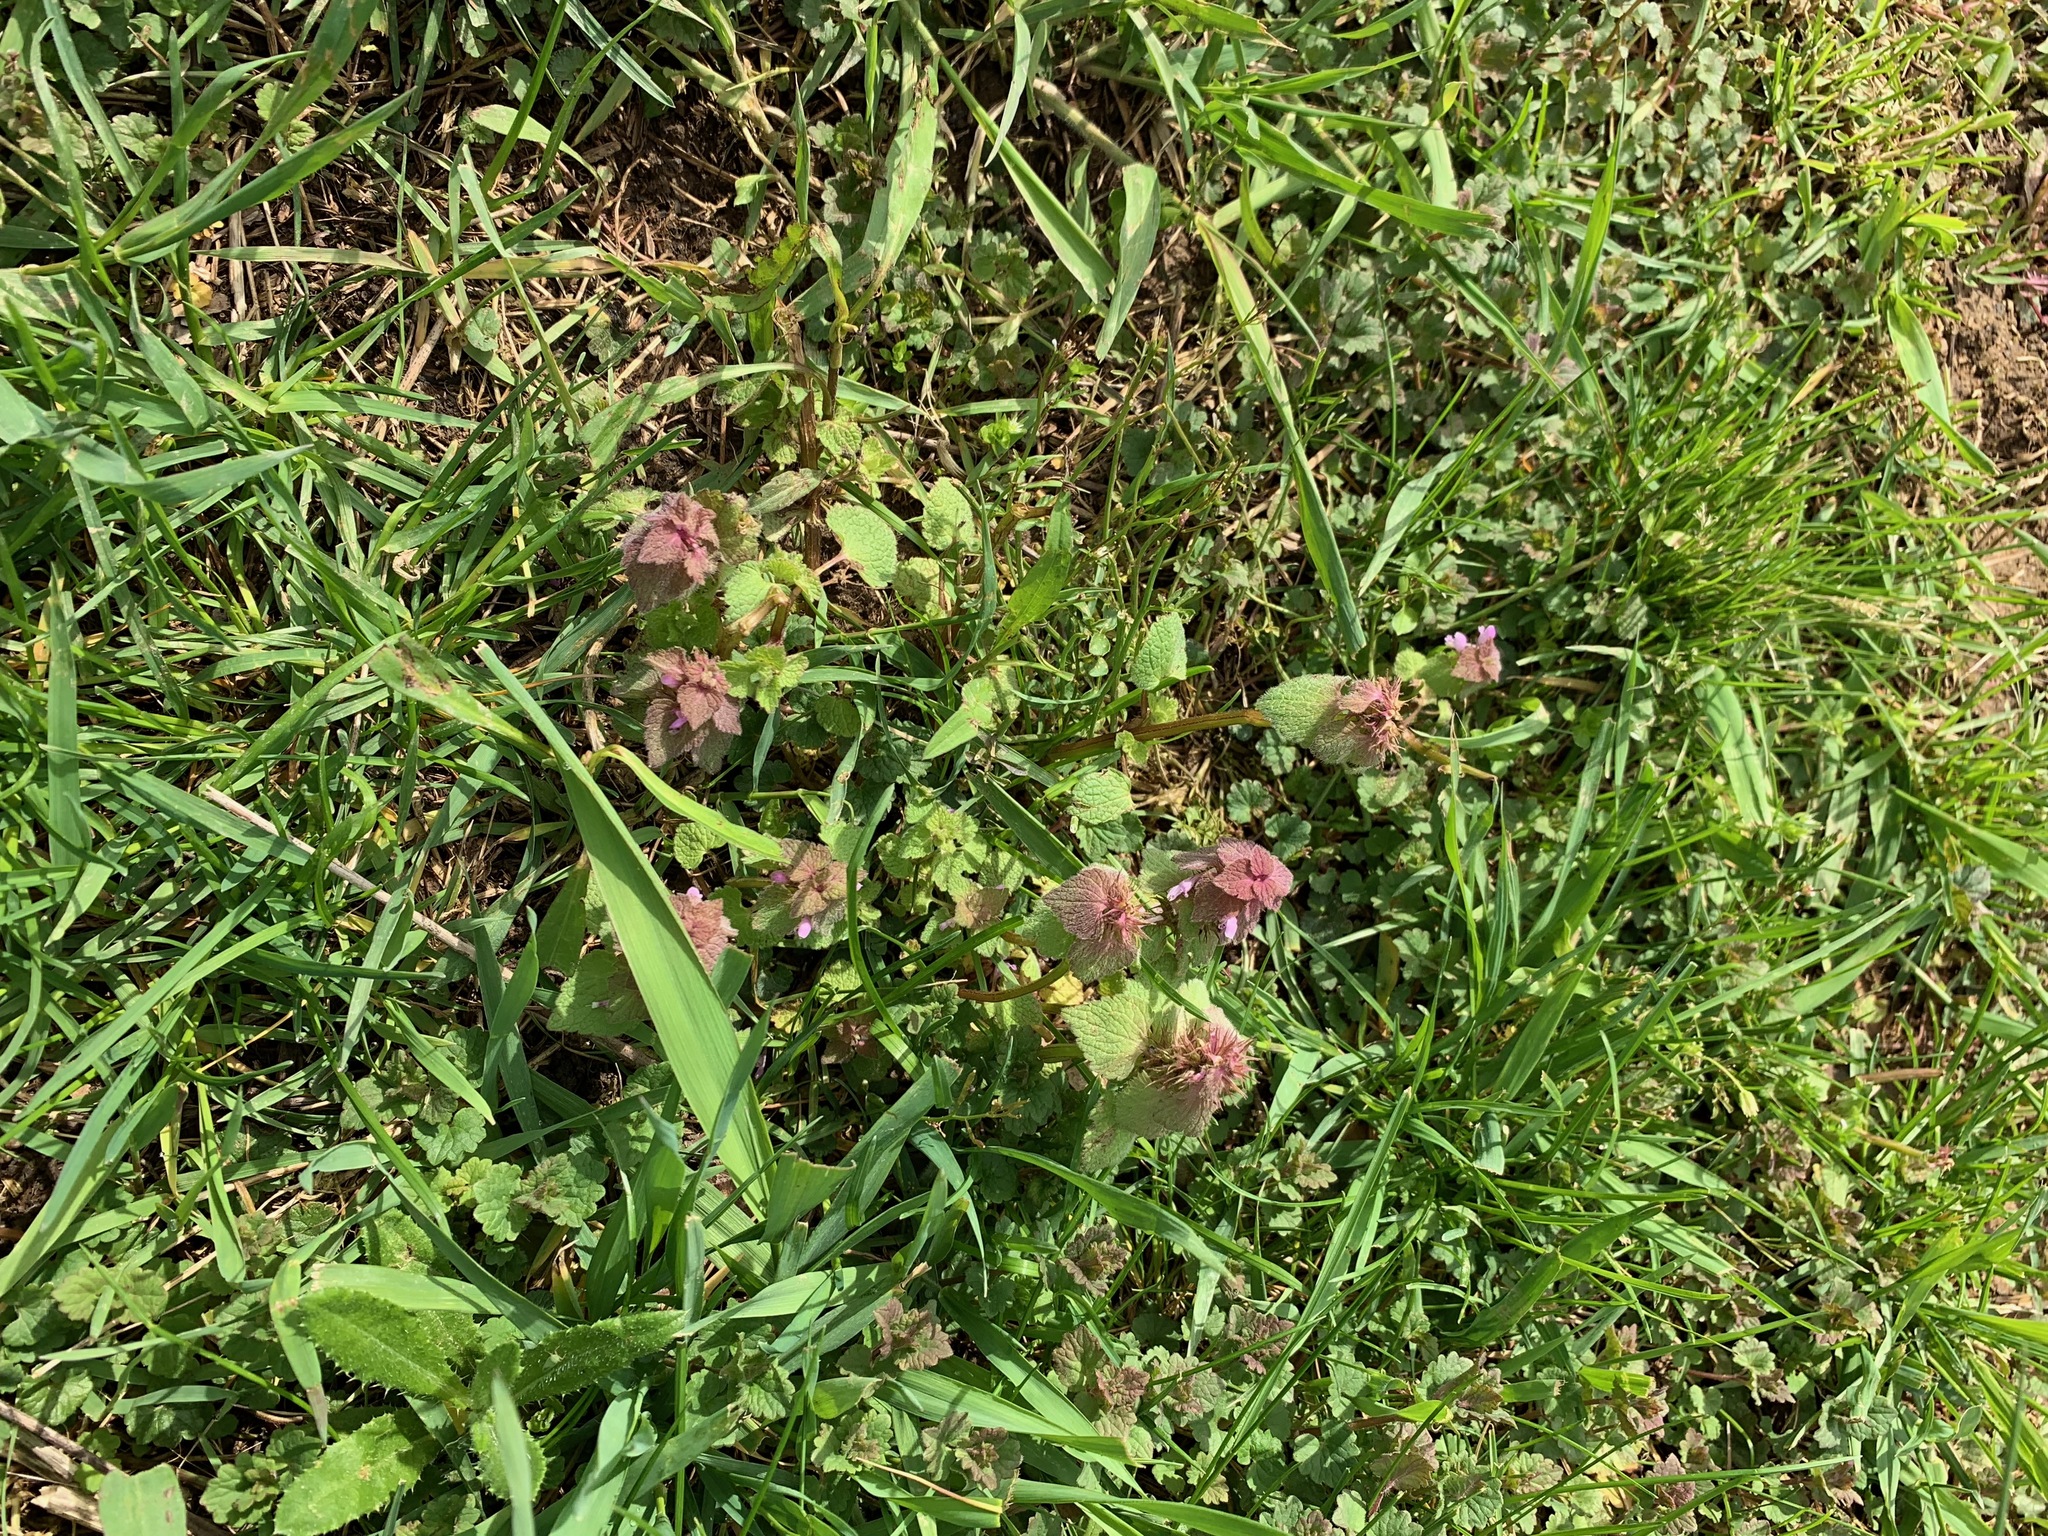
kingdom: Plantae
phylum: Tracheophyta
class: Magnoliopsida
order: Lamiales
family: Lamiaceae
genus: Lamium
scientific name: Lamium purpureum
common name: Red dead-nettle
